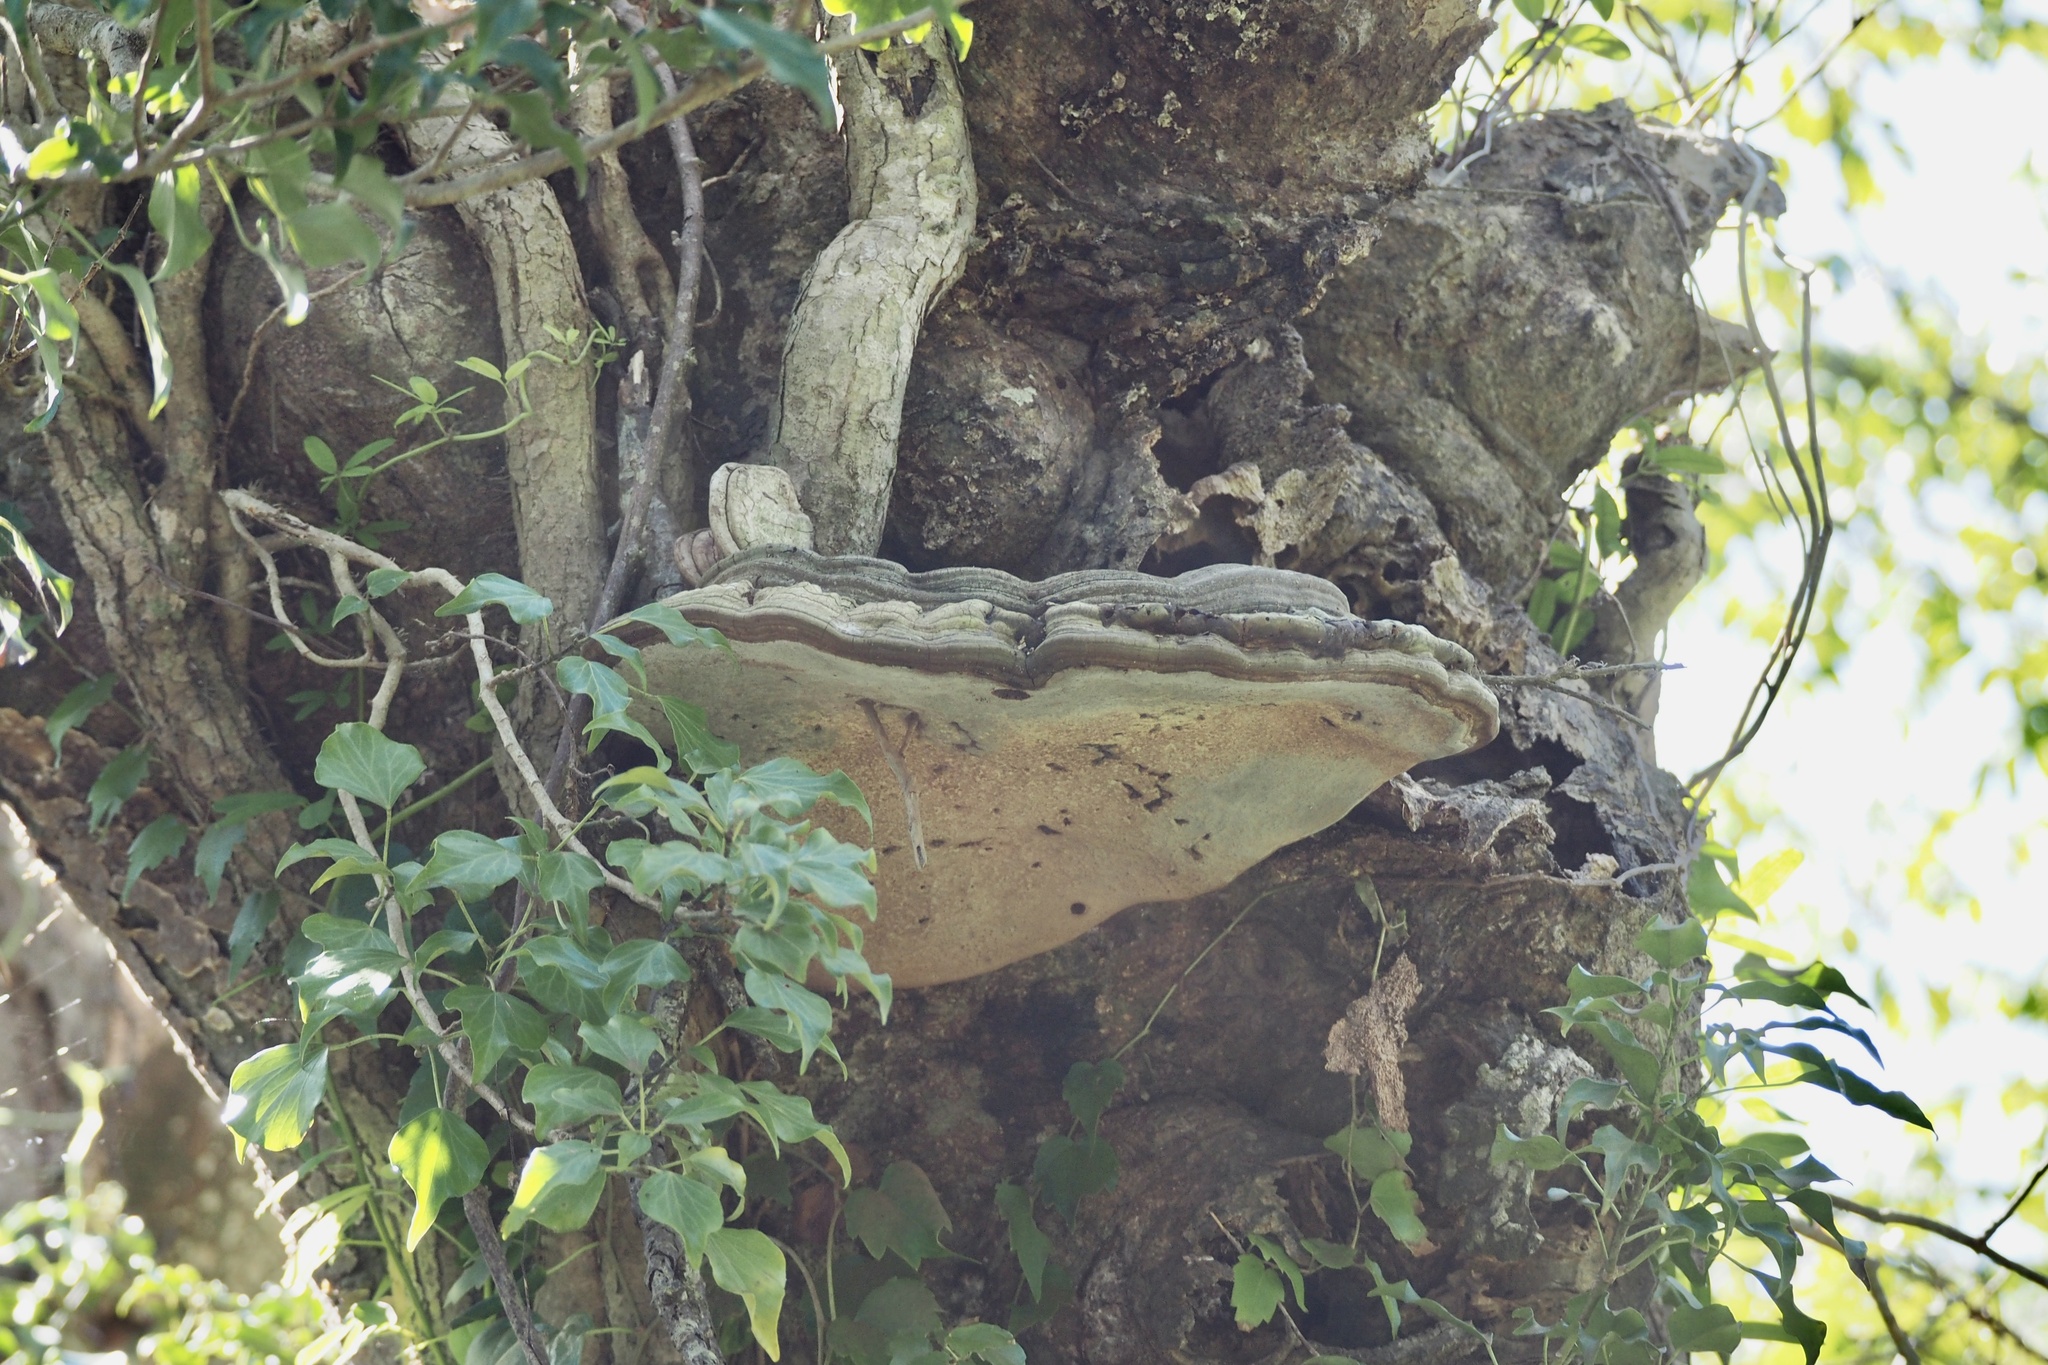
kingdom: Fungi
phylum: Basidiomycota
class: Agaricomycetes
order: Polyporales
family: Polyporaceae
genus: Ganoderma
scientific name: Ganoderma applanatum
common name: Artist's bracket
